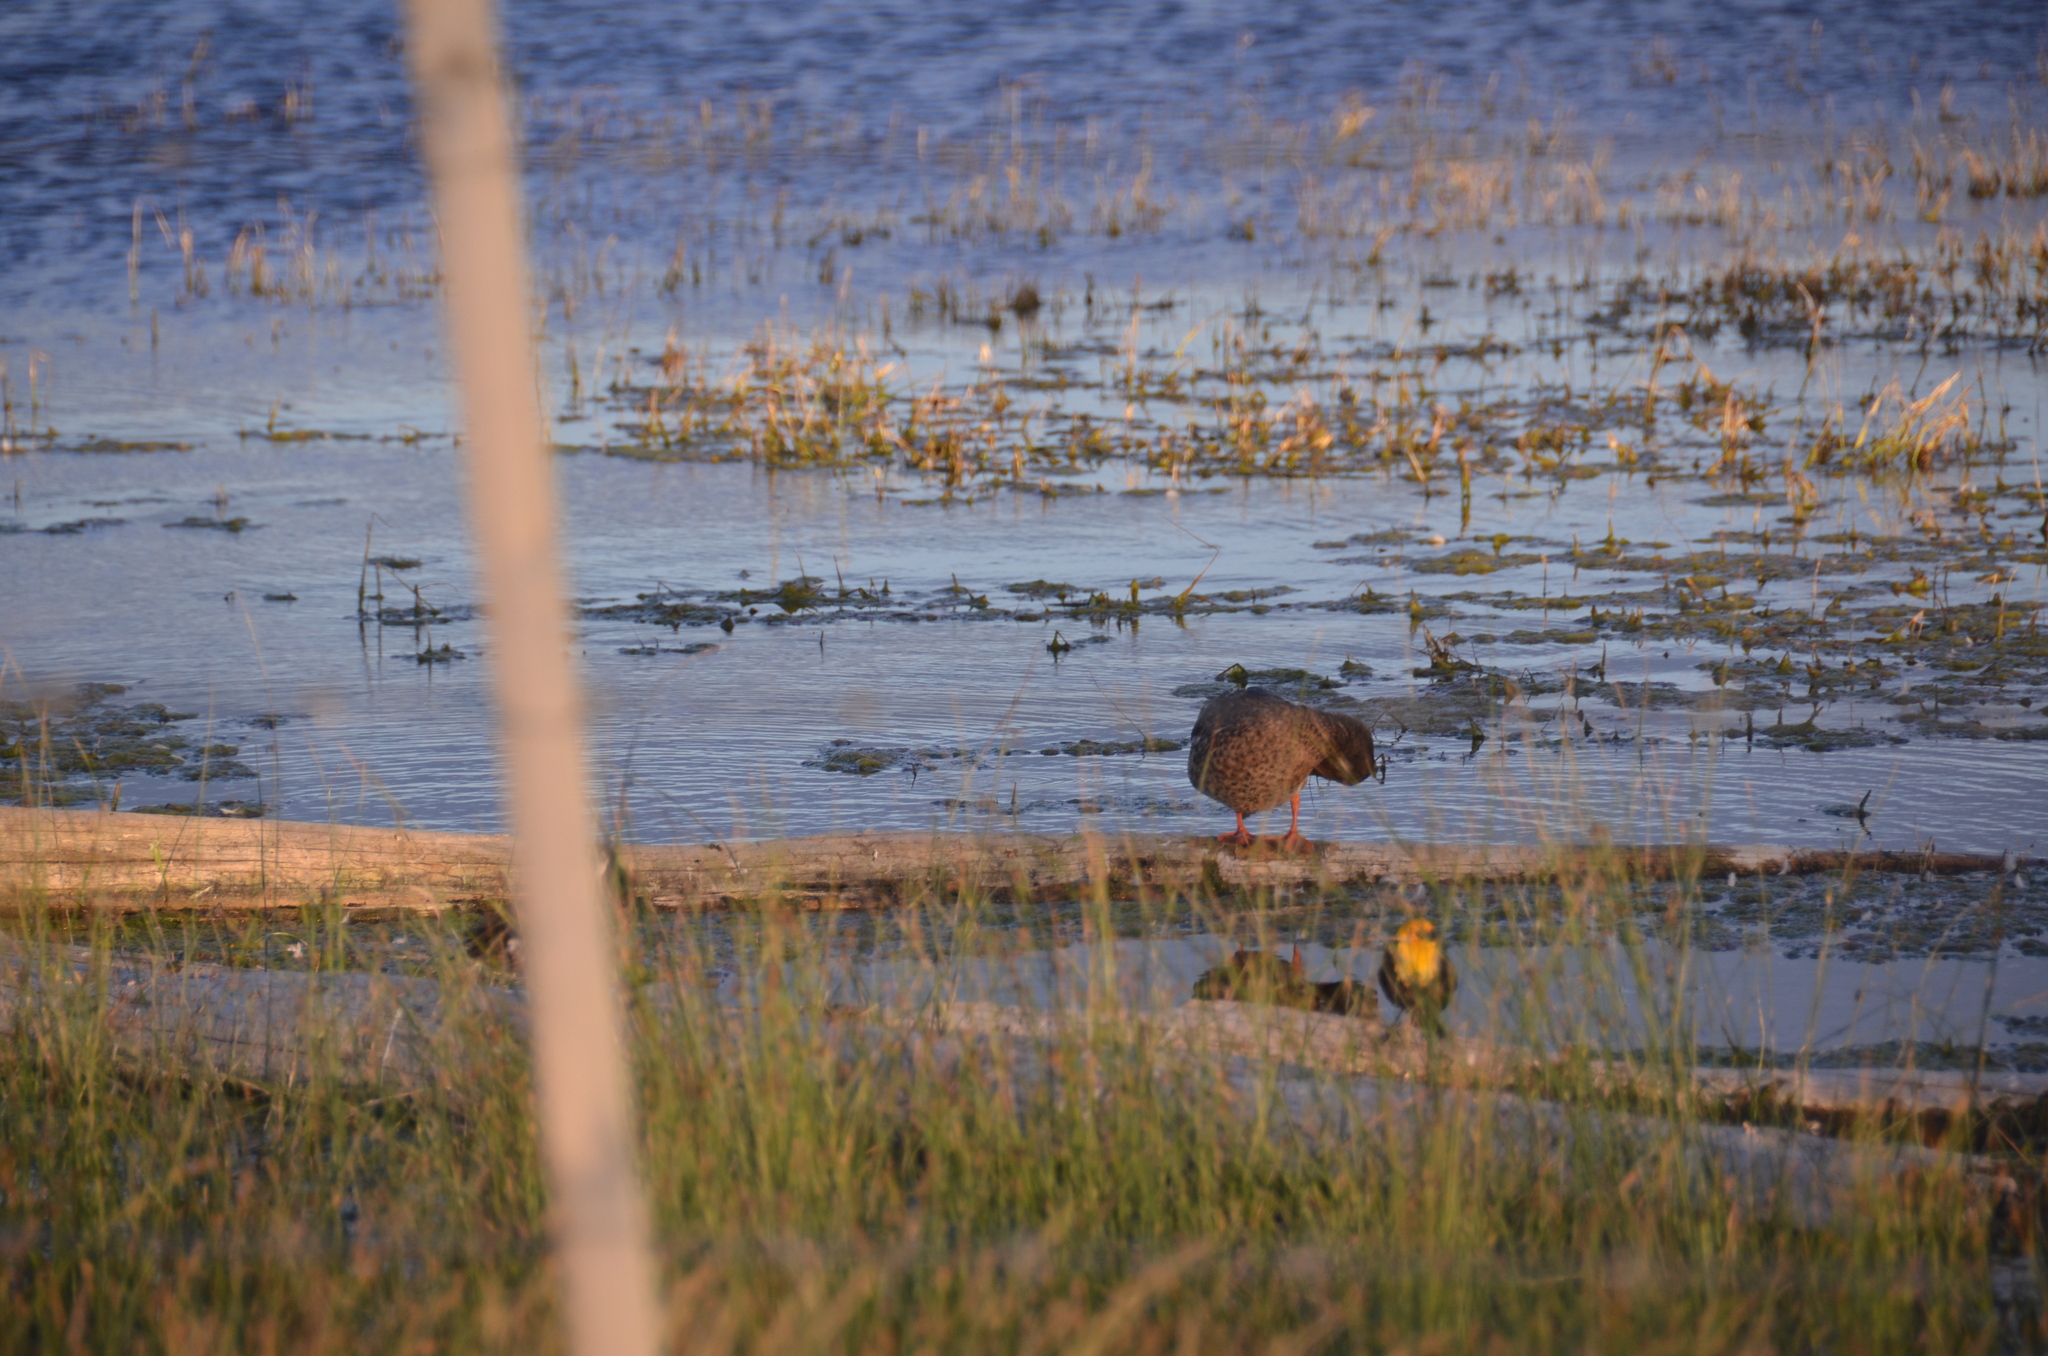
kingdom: Animalia
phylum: Chordata
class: Aves
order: Anseriformes
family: Anatidae
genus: Spatula
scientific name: Spatula discors
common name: Blue-winged teal
